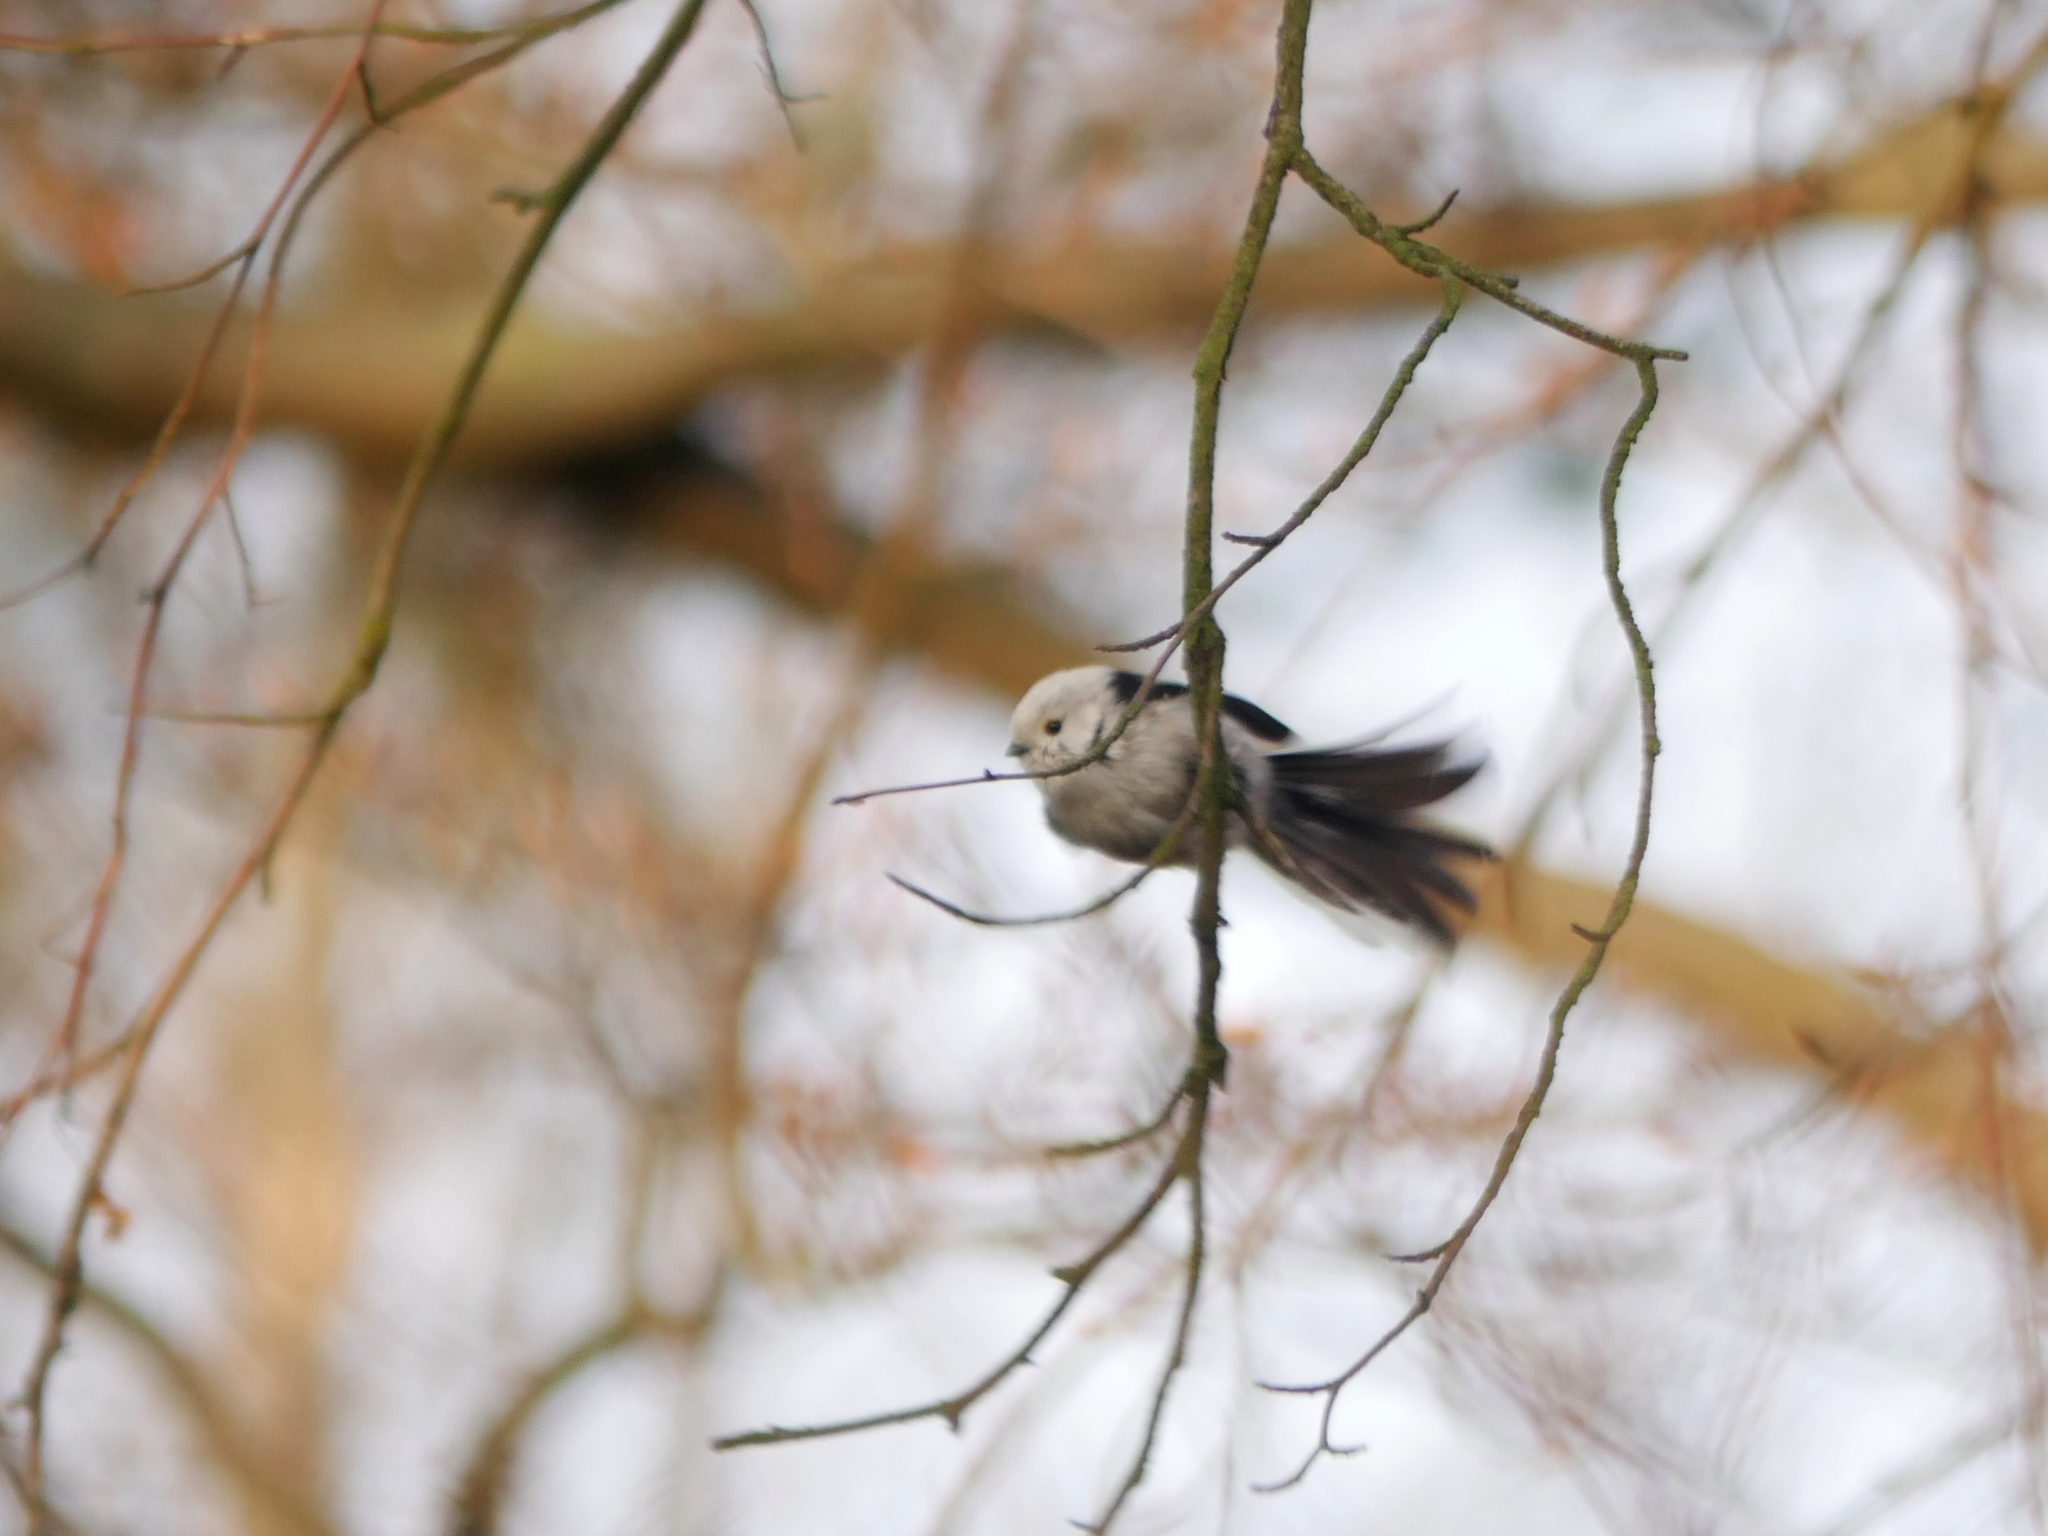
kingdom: Animalia
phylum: Chordata
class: Aves
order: Passeriformes
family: Aegithalidae
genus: Aegithalos
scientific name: Aegithalos caudatus
